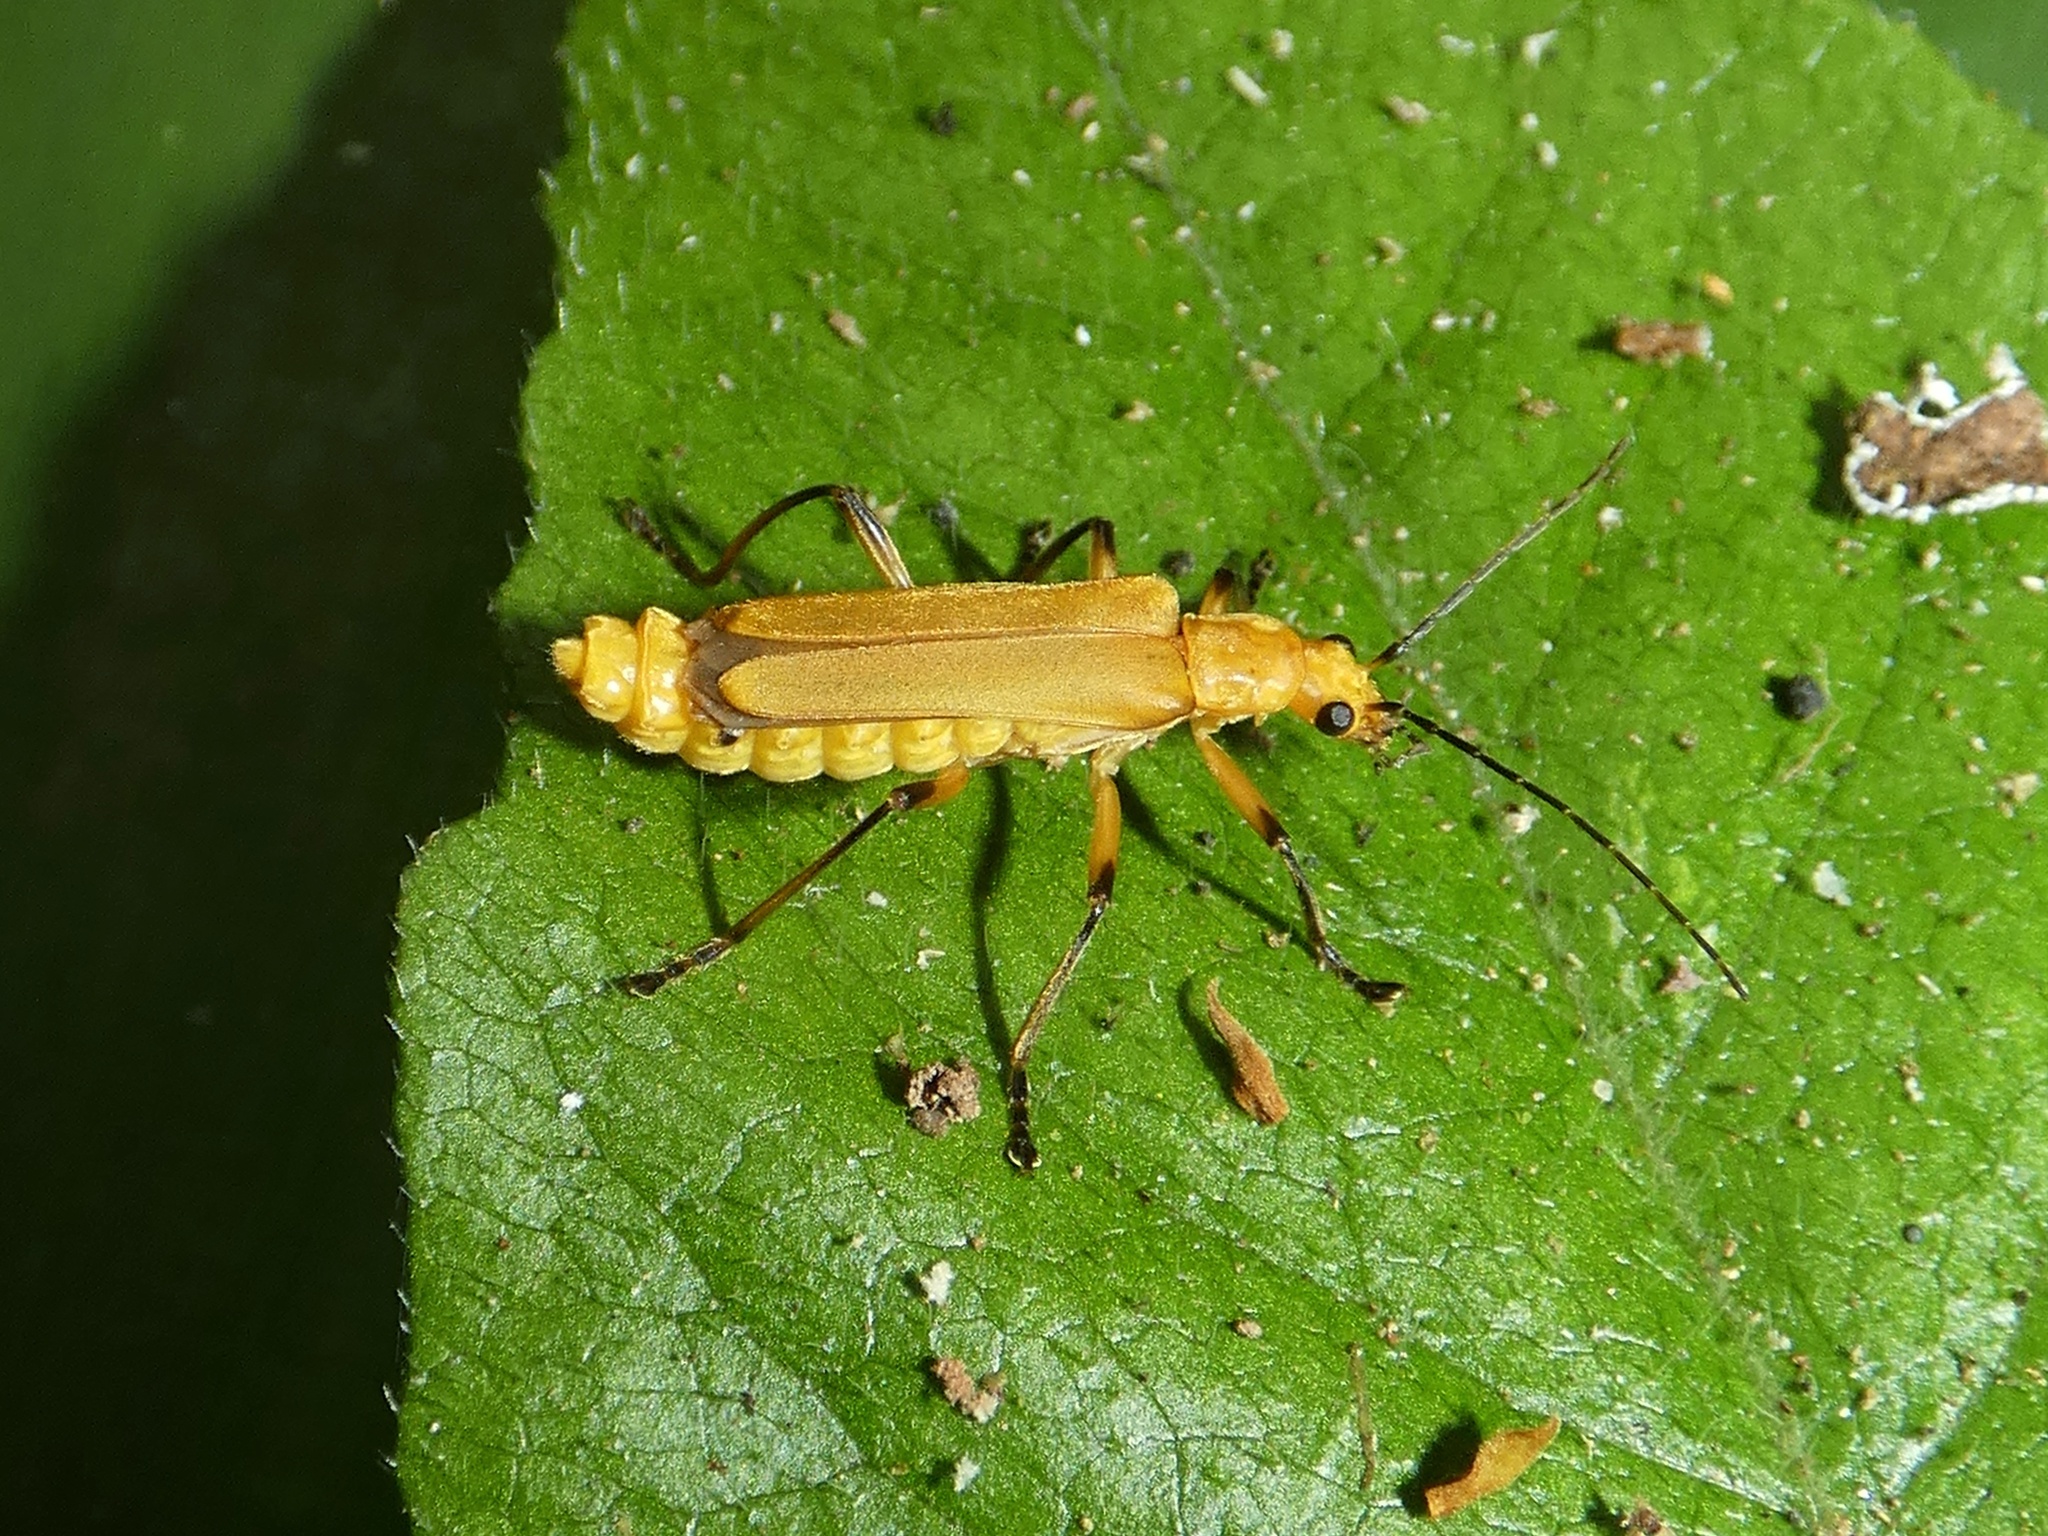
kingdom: Animalia
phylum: Arthropoda
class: Insecta
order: Coleoptera
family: Cantharidae
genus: Chauliognathus
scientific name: Chauliognathus
